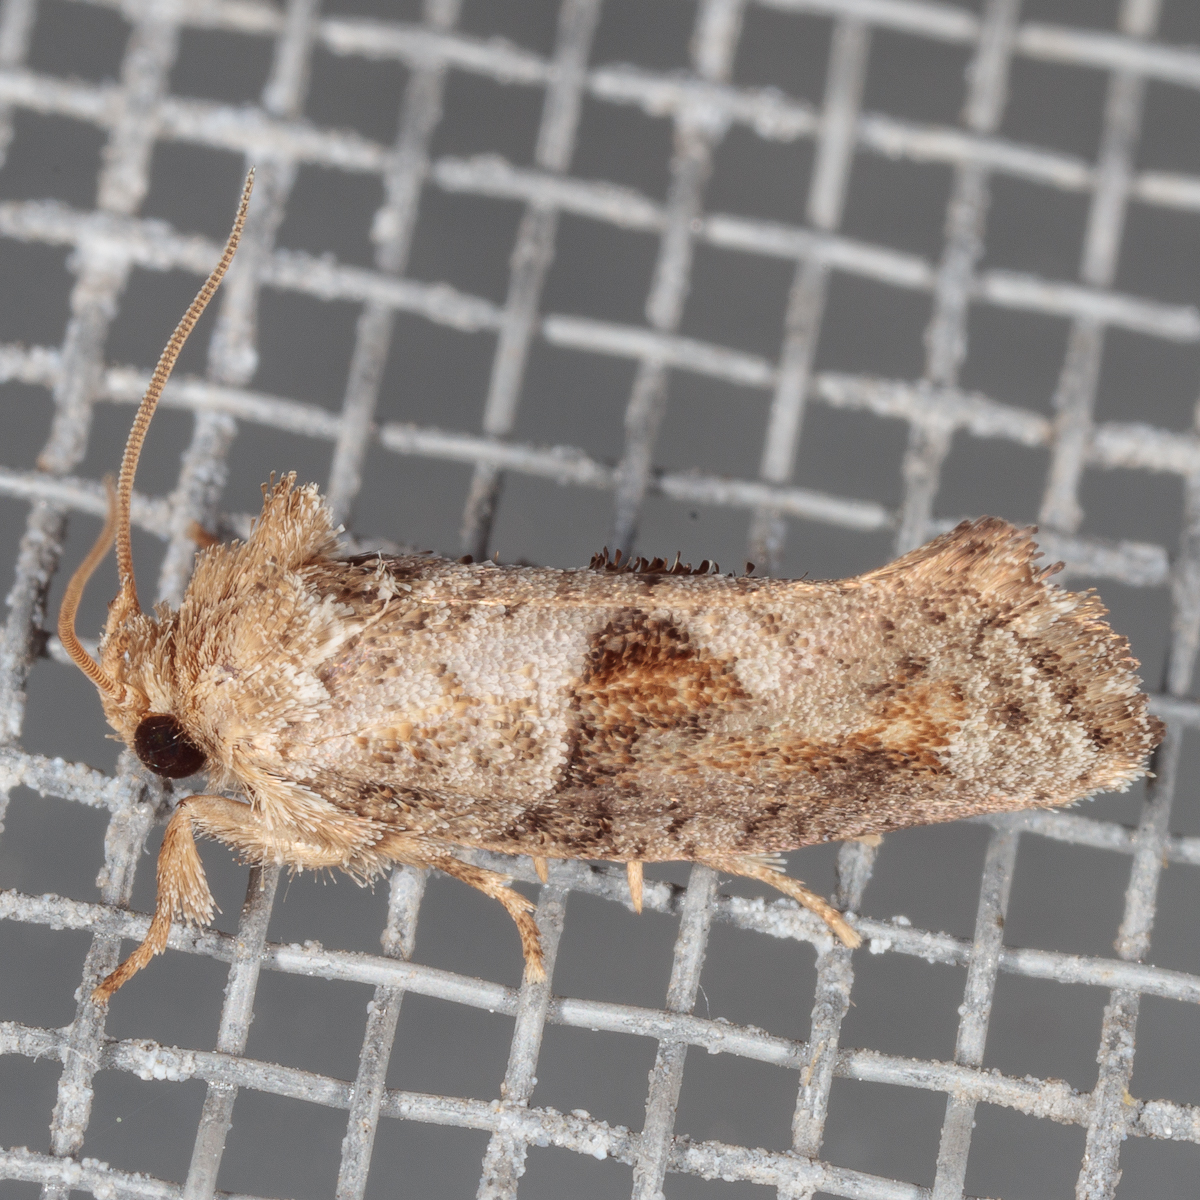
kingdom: Animalia
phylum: Arthropoda
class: Insecta
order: Lepidoptera
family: Tineidae
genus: Acrolophus
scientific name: Acrolophus piger
